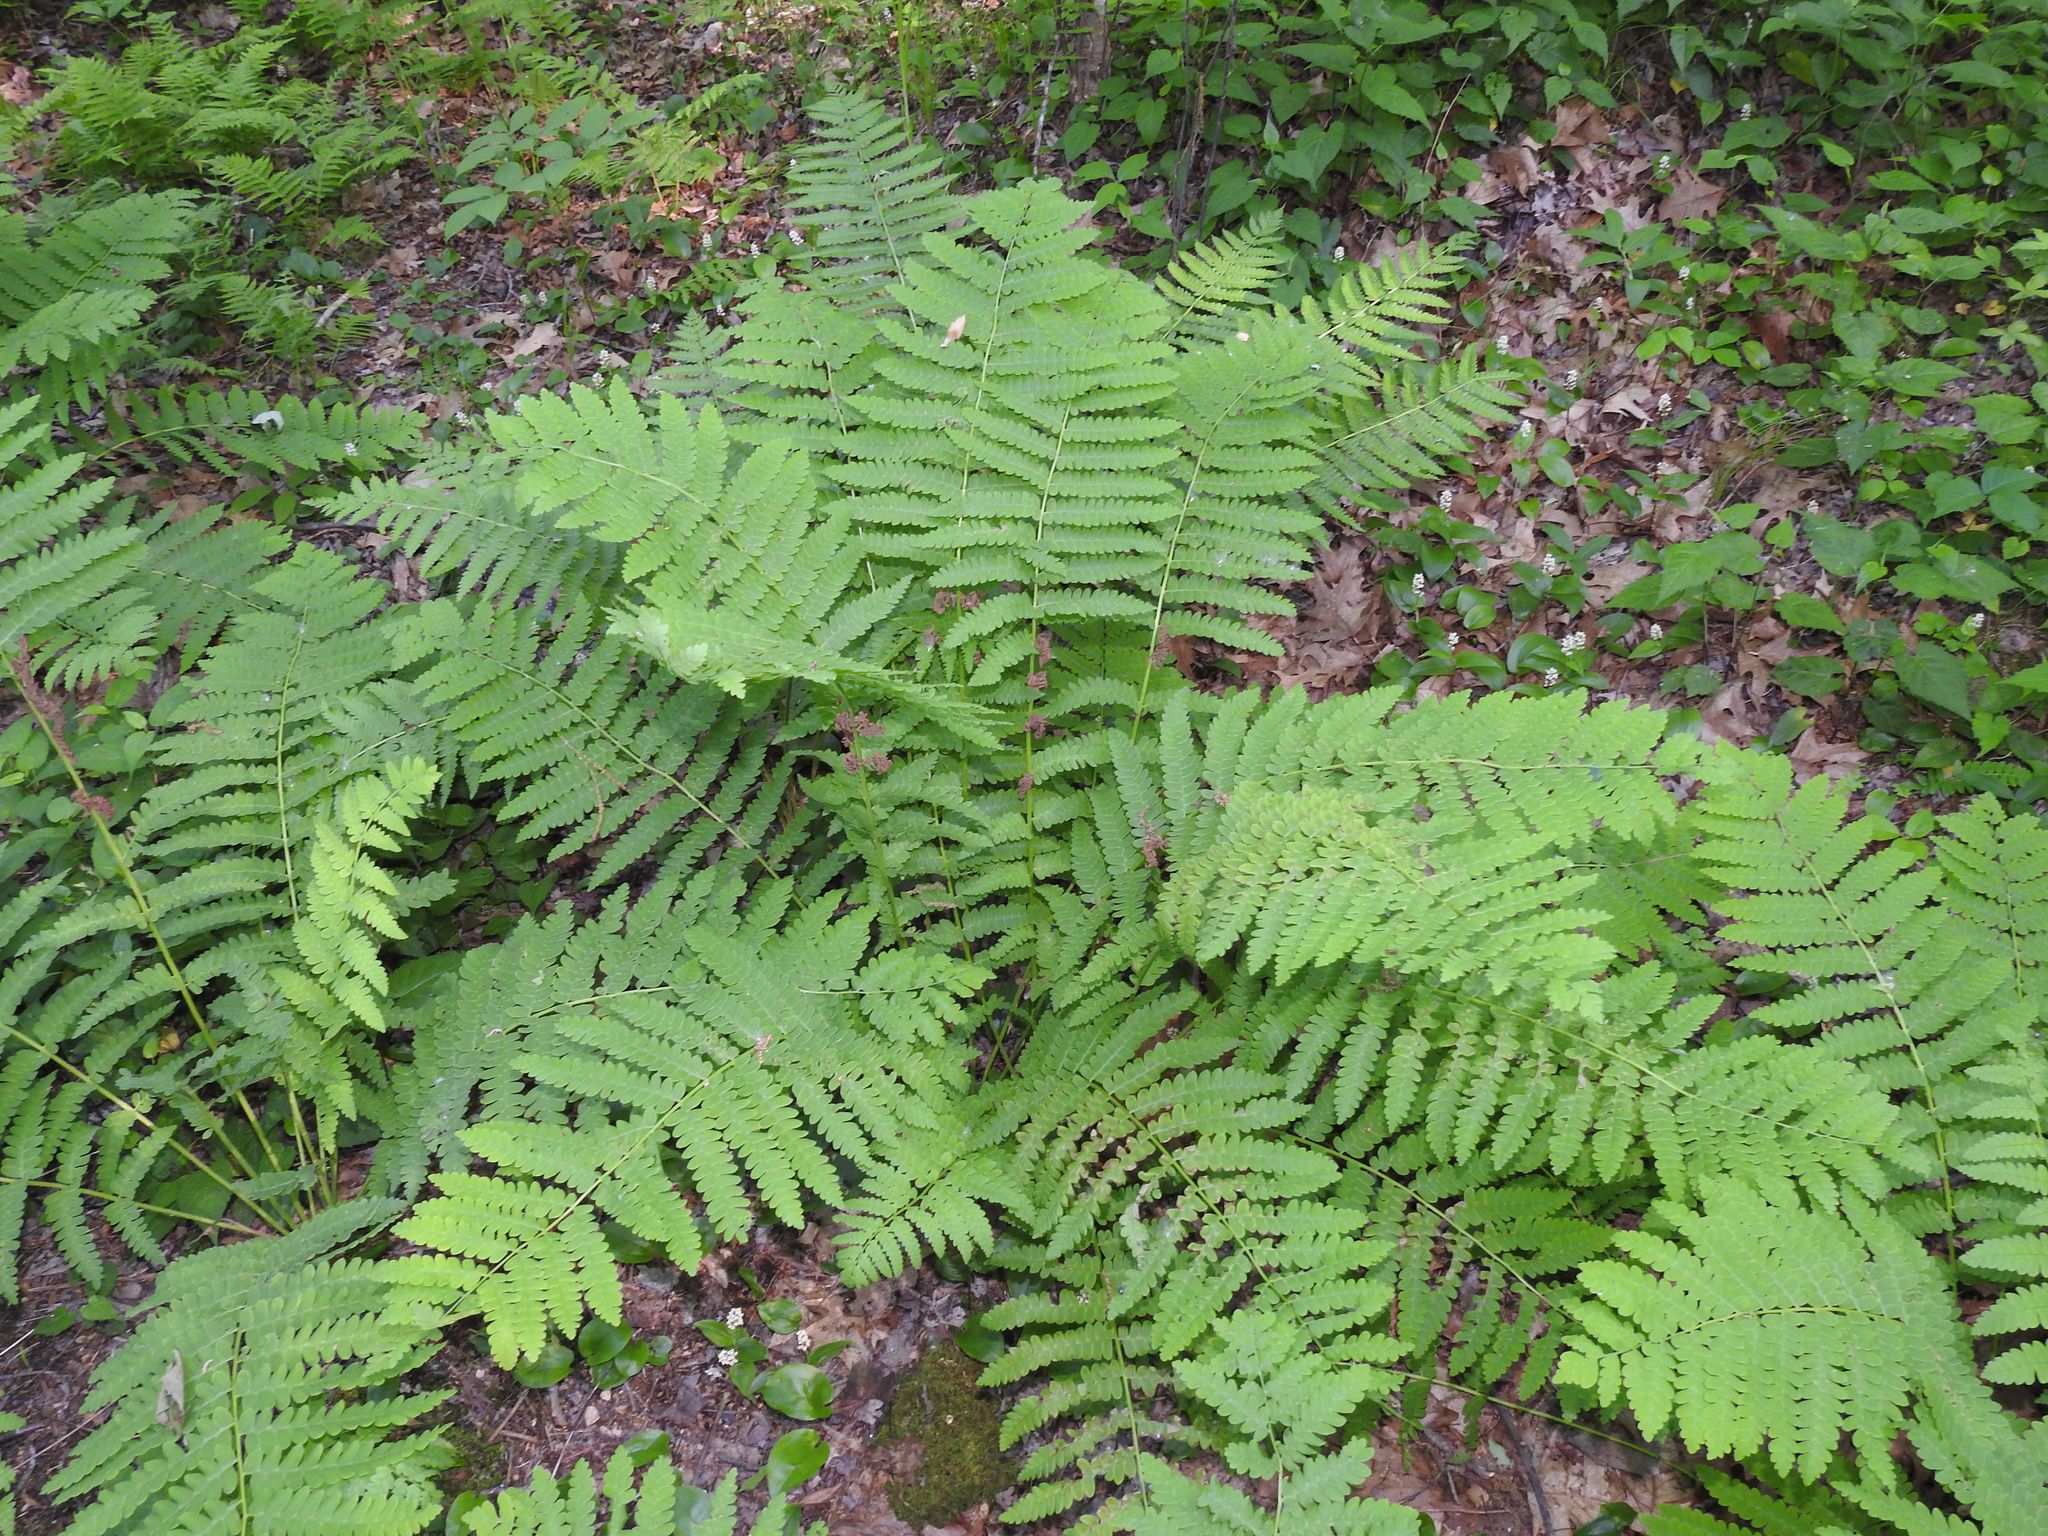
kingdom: Plantae
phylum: Tracheophyta
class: Polypodiopsida
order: Osmundales
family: Osmundaceae
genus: Claytosmunda
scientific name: Claytosmunda claytoniana
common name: Clayton's fern
